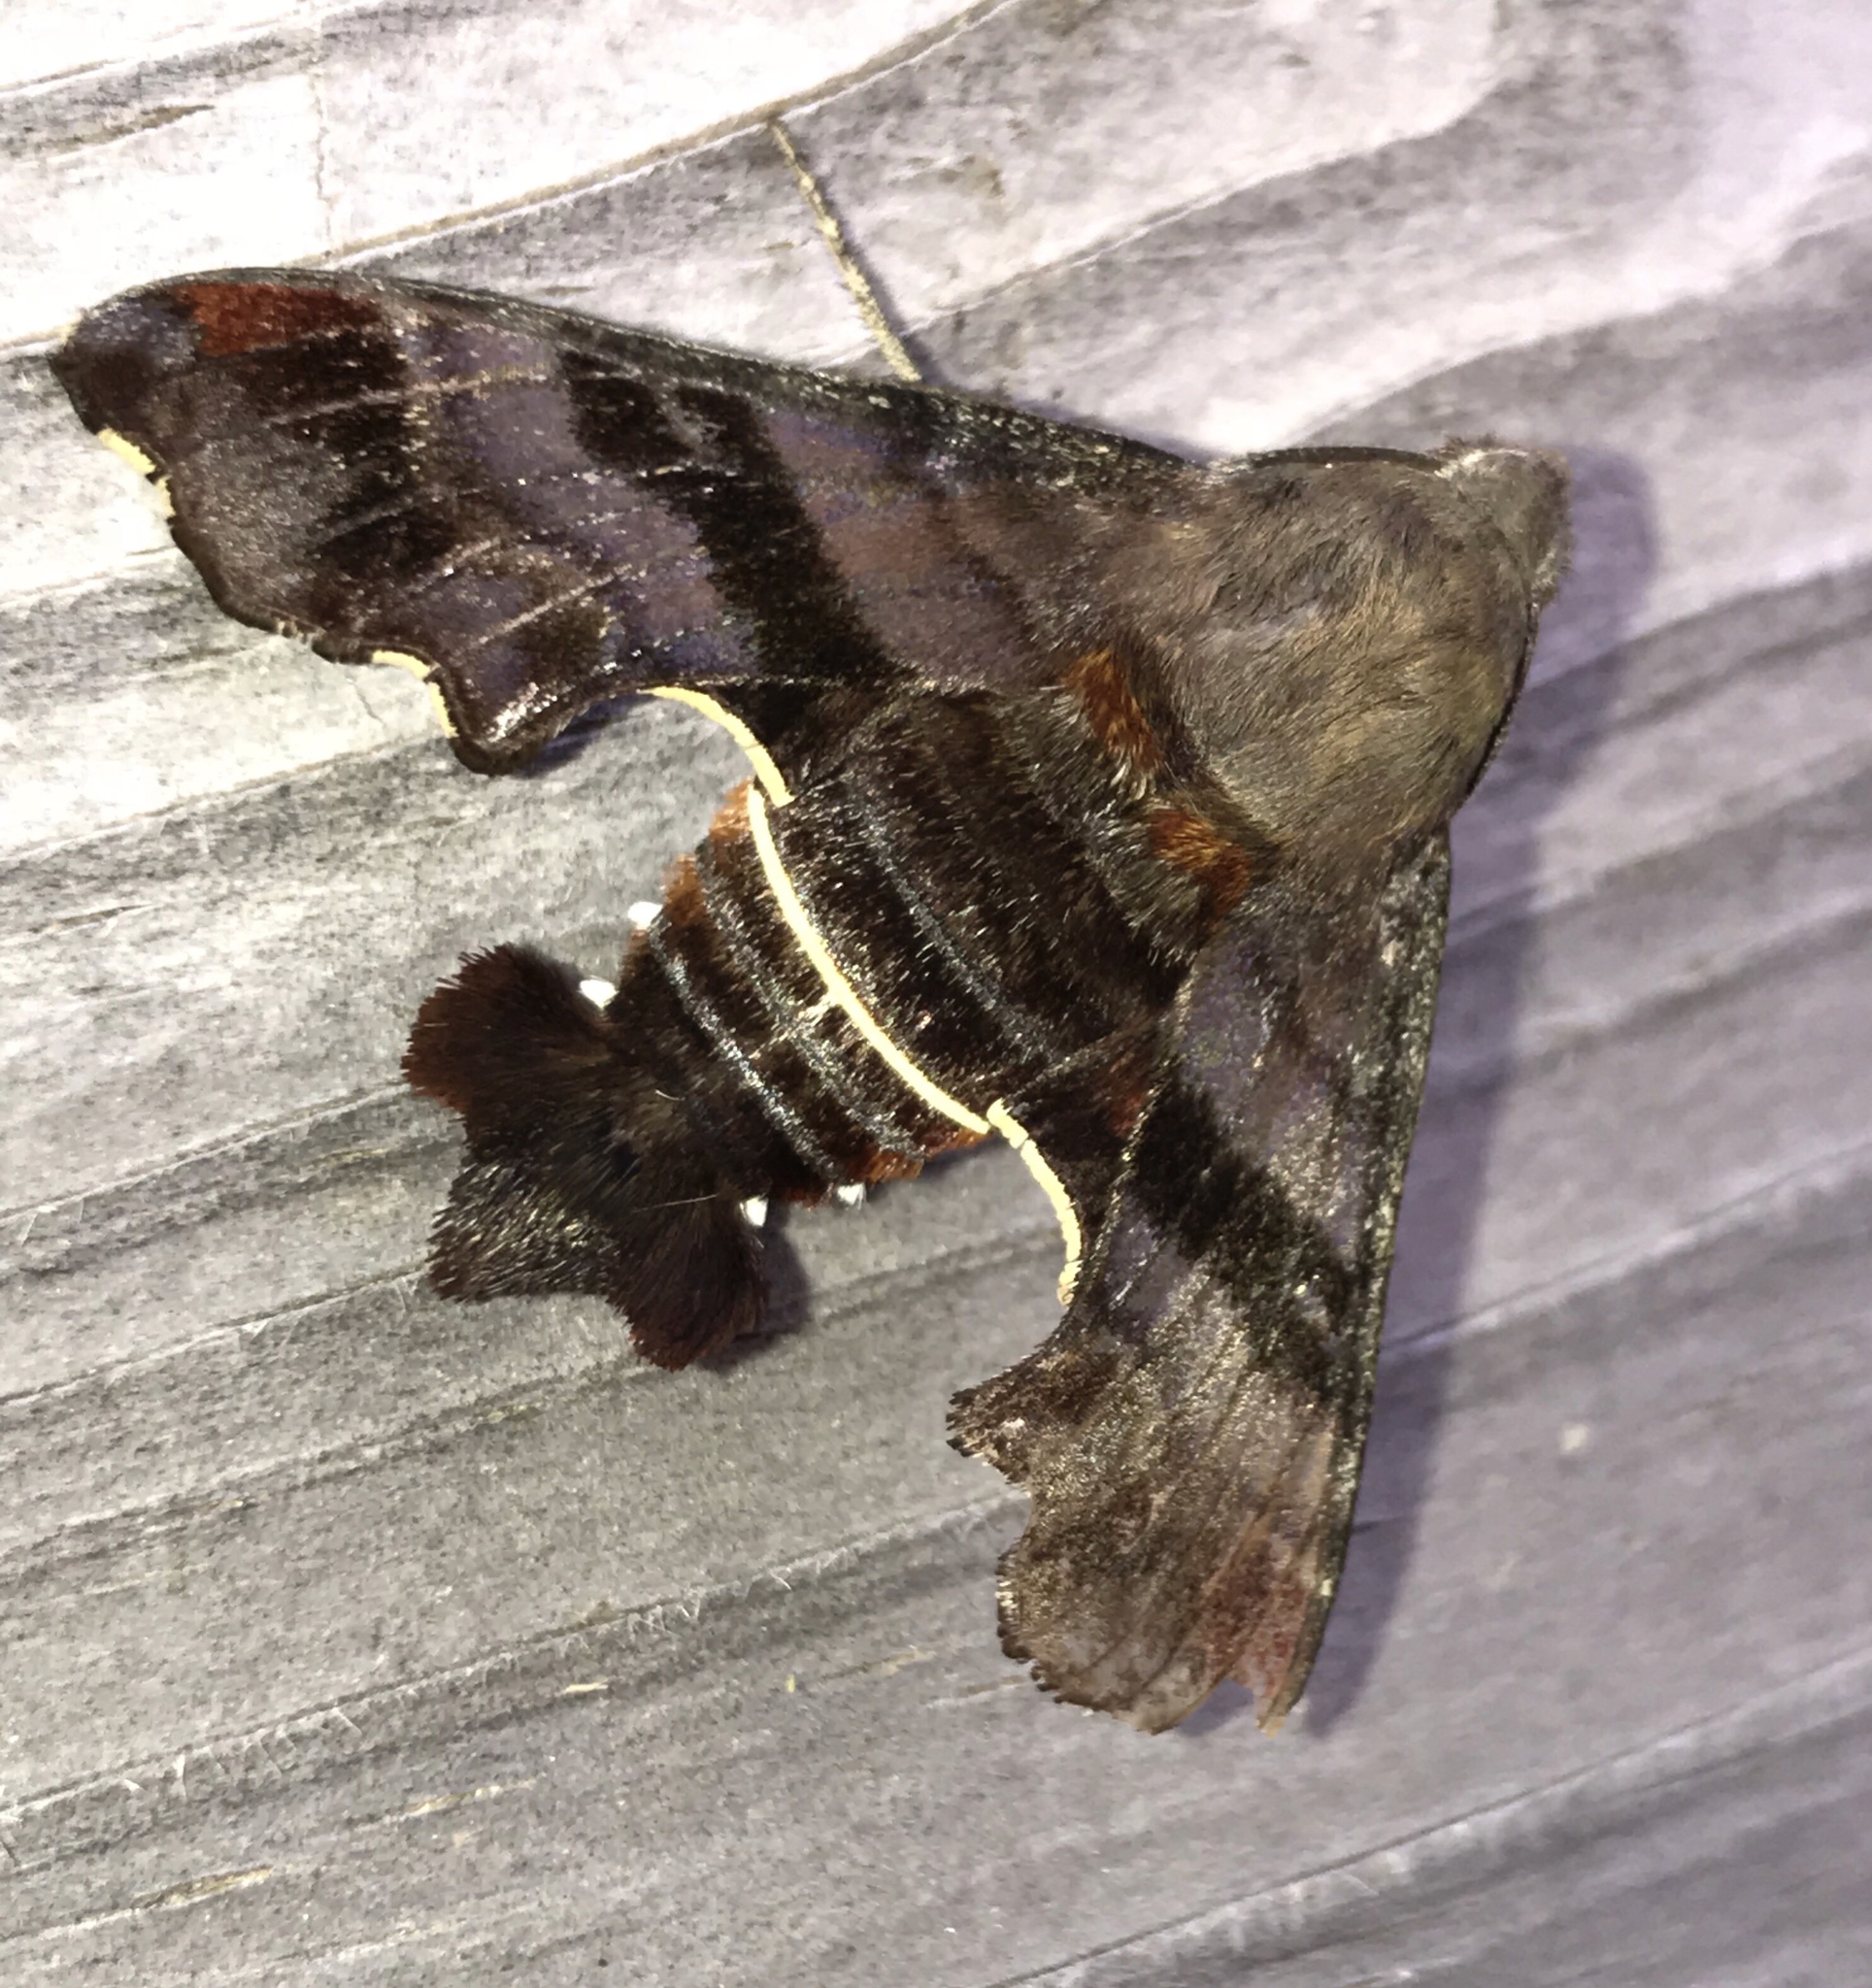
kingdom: Animalia
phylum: Arthropoda
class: Insecta
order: Lepidoptera
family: Sphingidae
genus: Amphion
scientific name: Amphion floridensis
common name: Nessus sphinx
